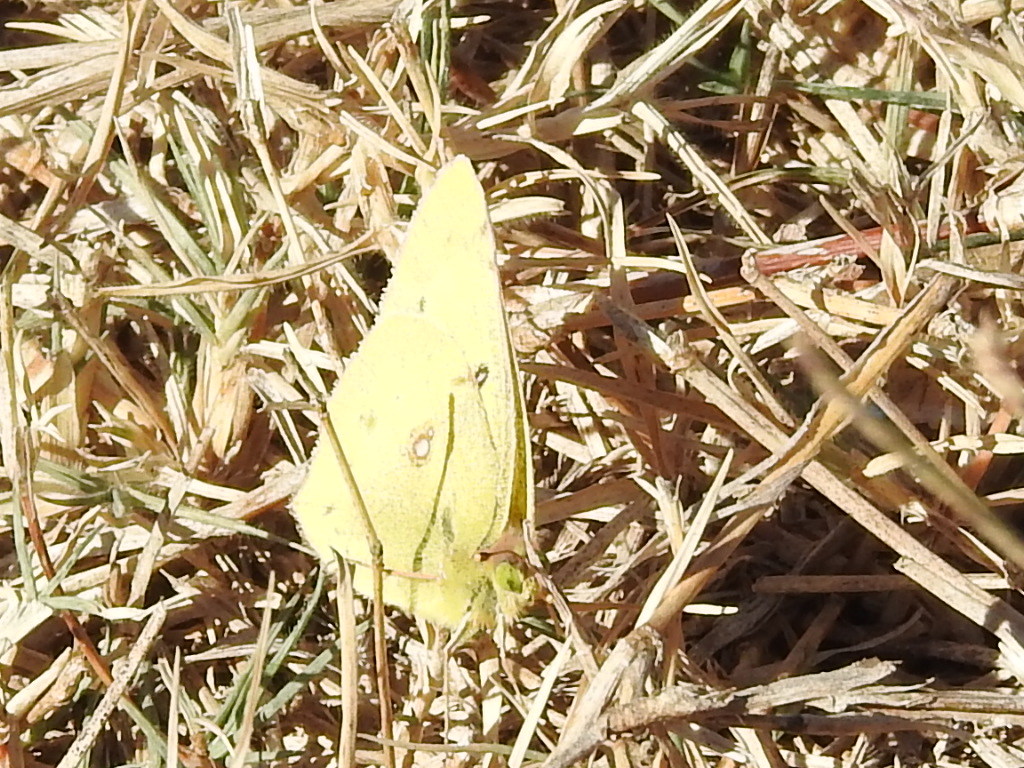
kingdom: Animalia
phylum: Arthropoda
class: Insecta
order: Lepidoptera
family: Pieridae
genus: Colias
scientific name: Colias eurytheme
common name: Alfalfa butterfly
